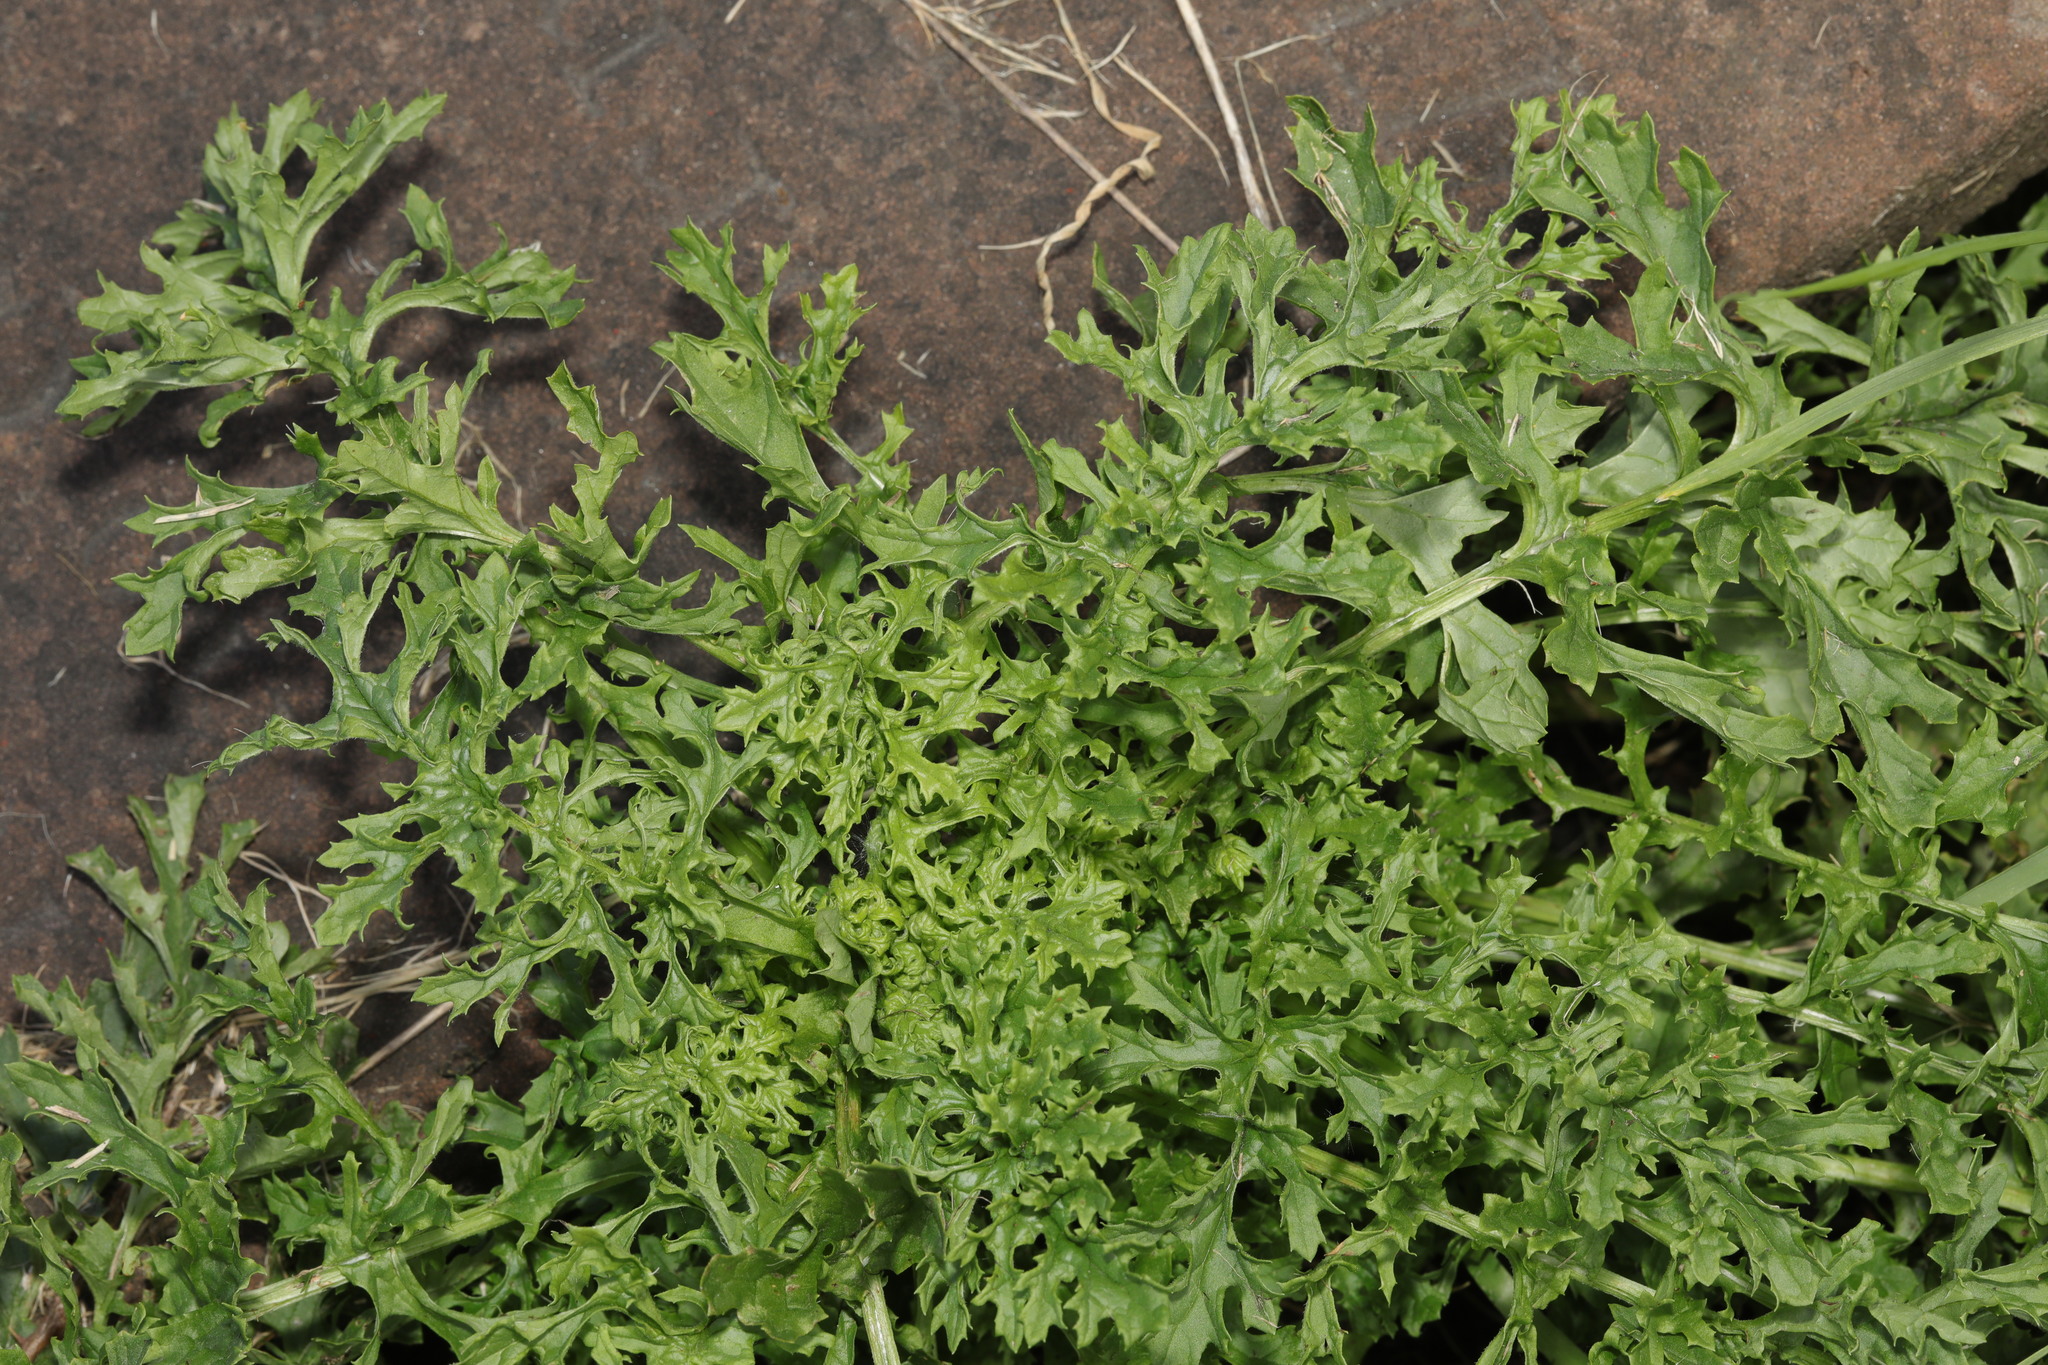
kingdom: Plantae
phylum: Tracheophyta
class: Magnoliopsida
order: Asterales
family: Asteraceae
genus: Jacobaea
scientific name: Jacobaea vulgaris
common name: Stinking willie
